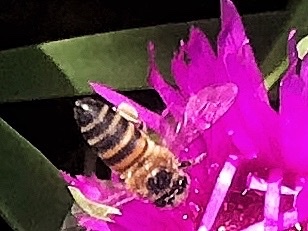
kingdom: Animalia
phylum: Arthropoda
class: Insecta
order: Hymenoptera
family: Apidae
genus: Apis
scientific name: Apis mellifera
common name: Honey bee
